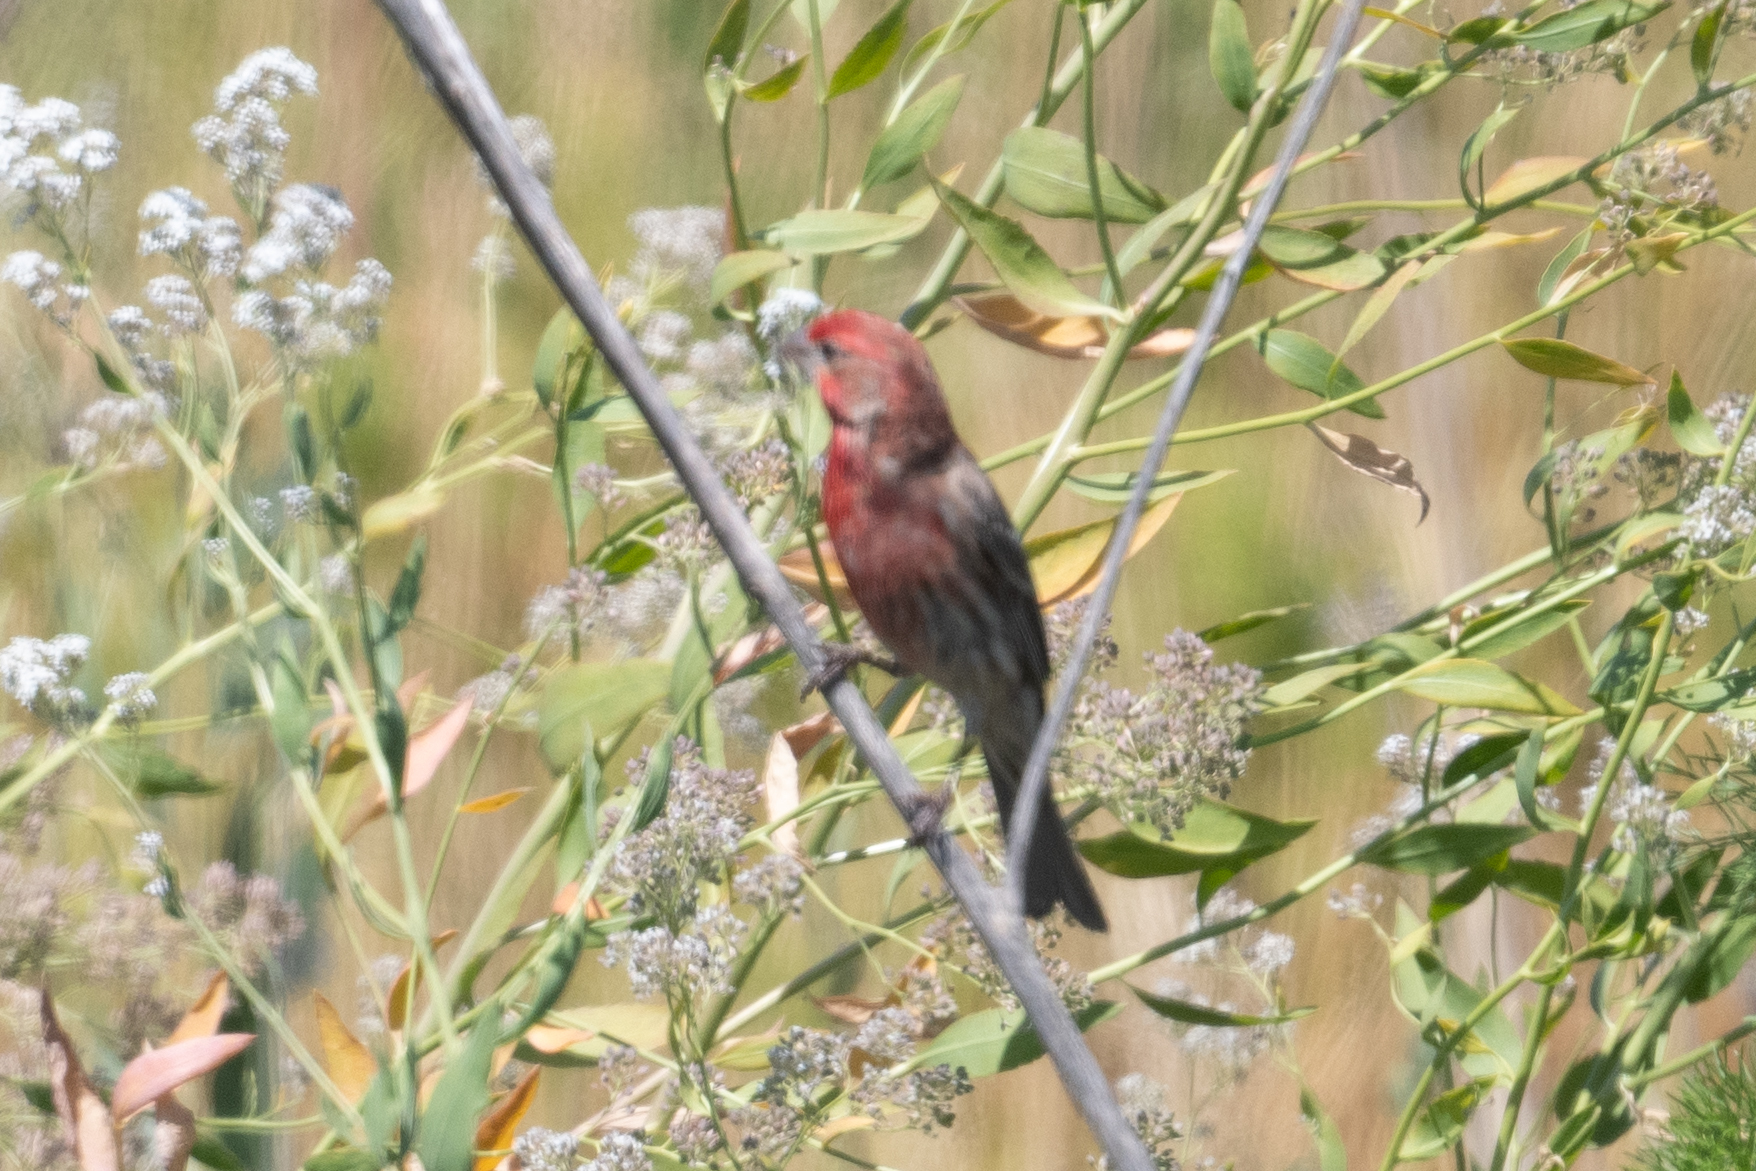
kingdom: Animalia
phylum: Chordata
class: Aves
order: Passeriformes
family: Fringillidae
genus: Haemorhous
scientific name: Haemorhous mexicanus
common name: House finch
